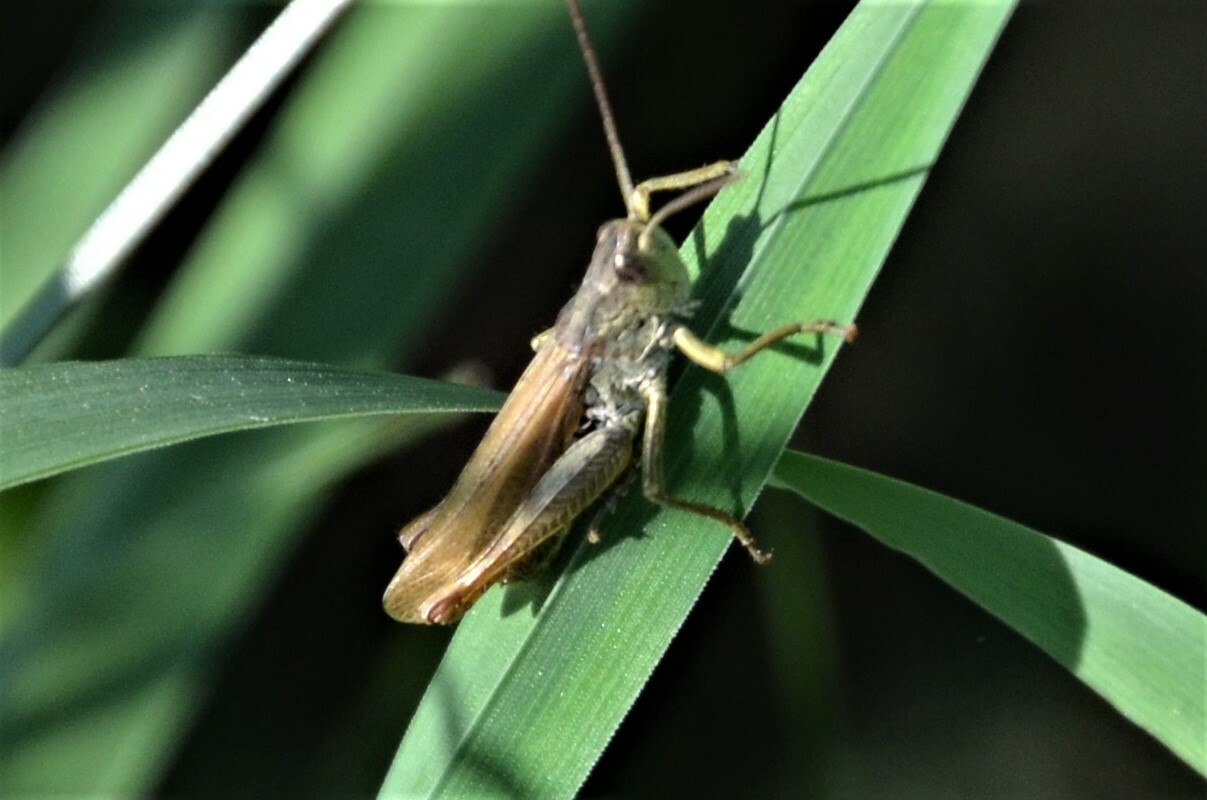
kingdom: Animalia
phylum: Arthropoda
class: Insecta
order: Orthoptera
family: Acrididae
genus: Chorthippus
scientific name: Chorthippus apricarius
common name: Upland field grasshopper
